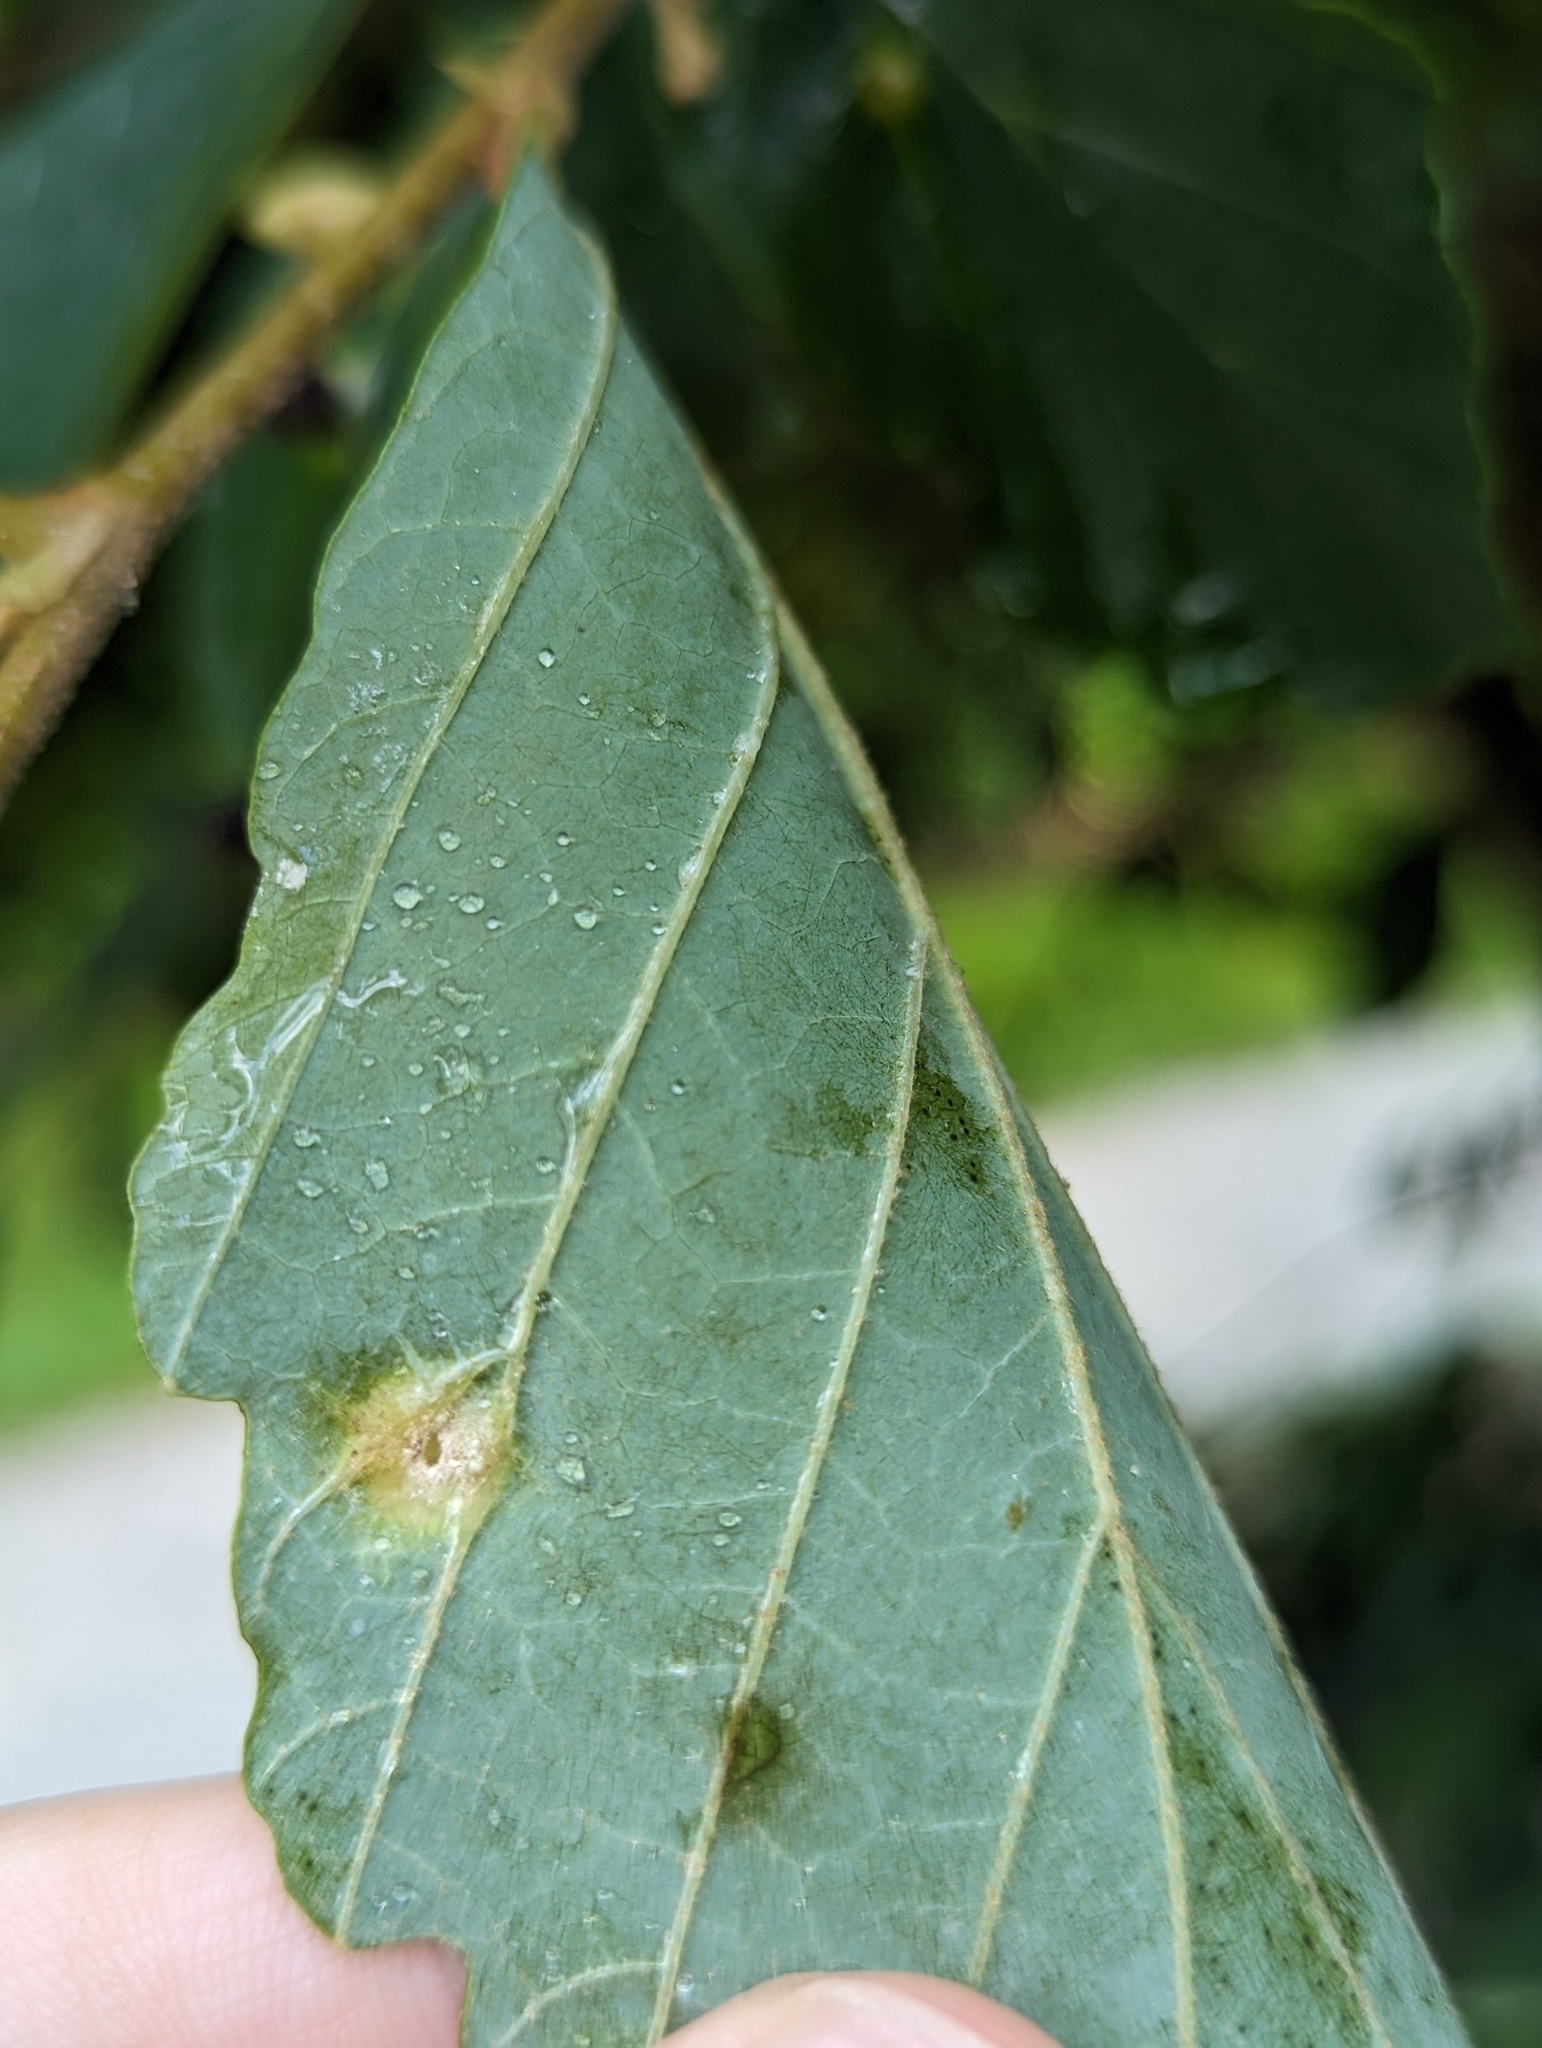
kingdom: Animalia
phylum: Arthropoda
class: Insecta
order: Hemiptera
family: Aphididae
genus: Hormaphis
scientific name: Hormaphis hamamelidis
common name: Witch-hazel cone gall aphid
